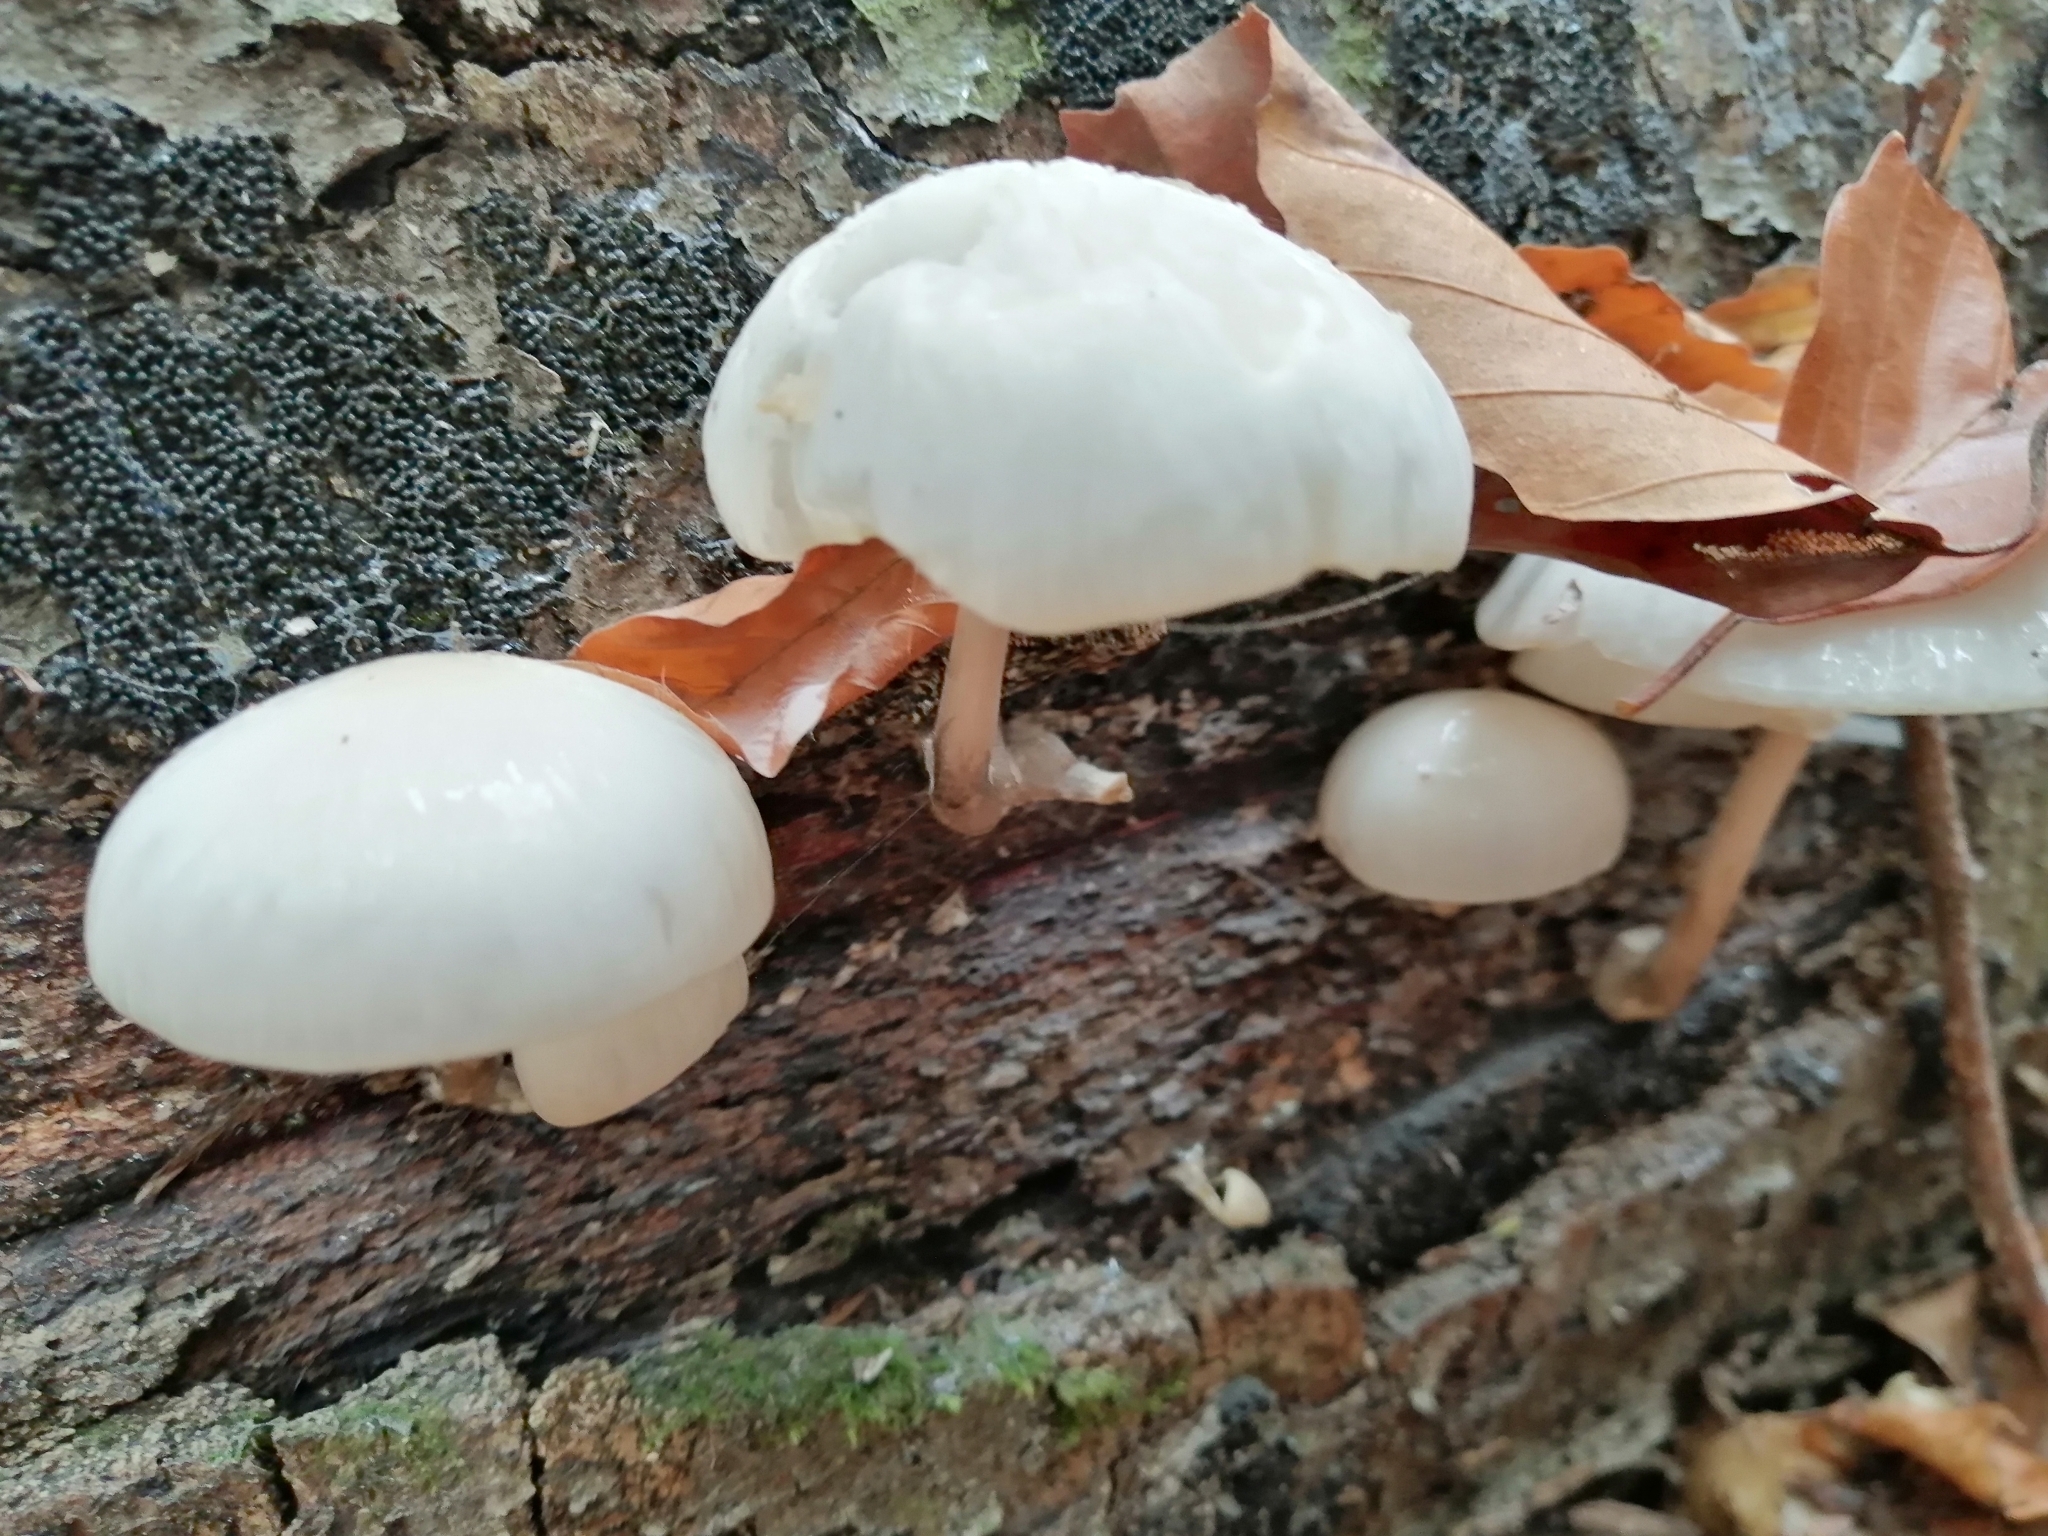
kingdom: Fungi
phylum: Basidiomycota
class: Agaricomycetes
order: Agaricales
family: Physalacriaceae
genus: Mucidula
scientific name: Mucidula mucida
